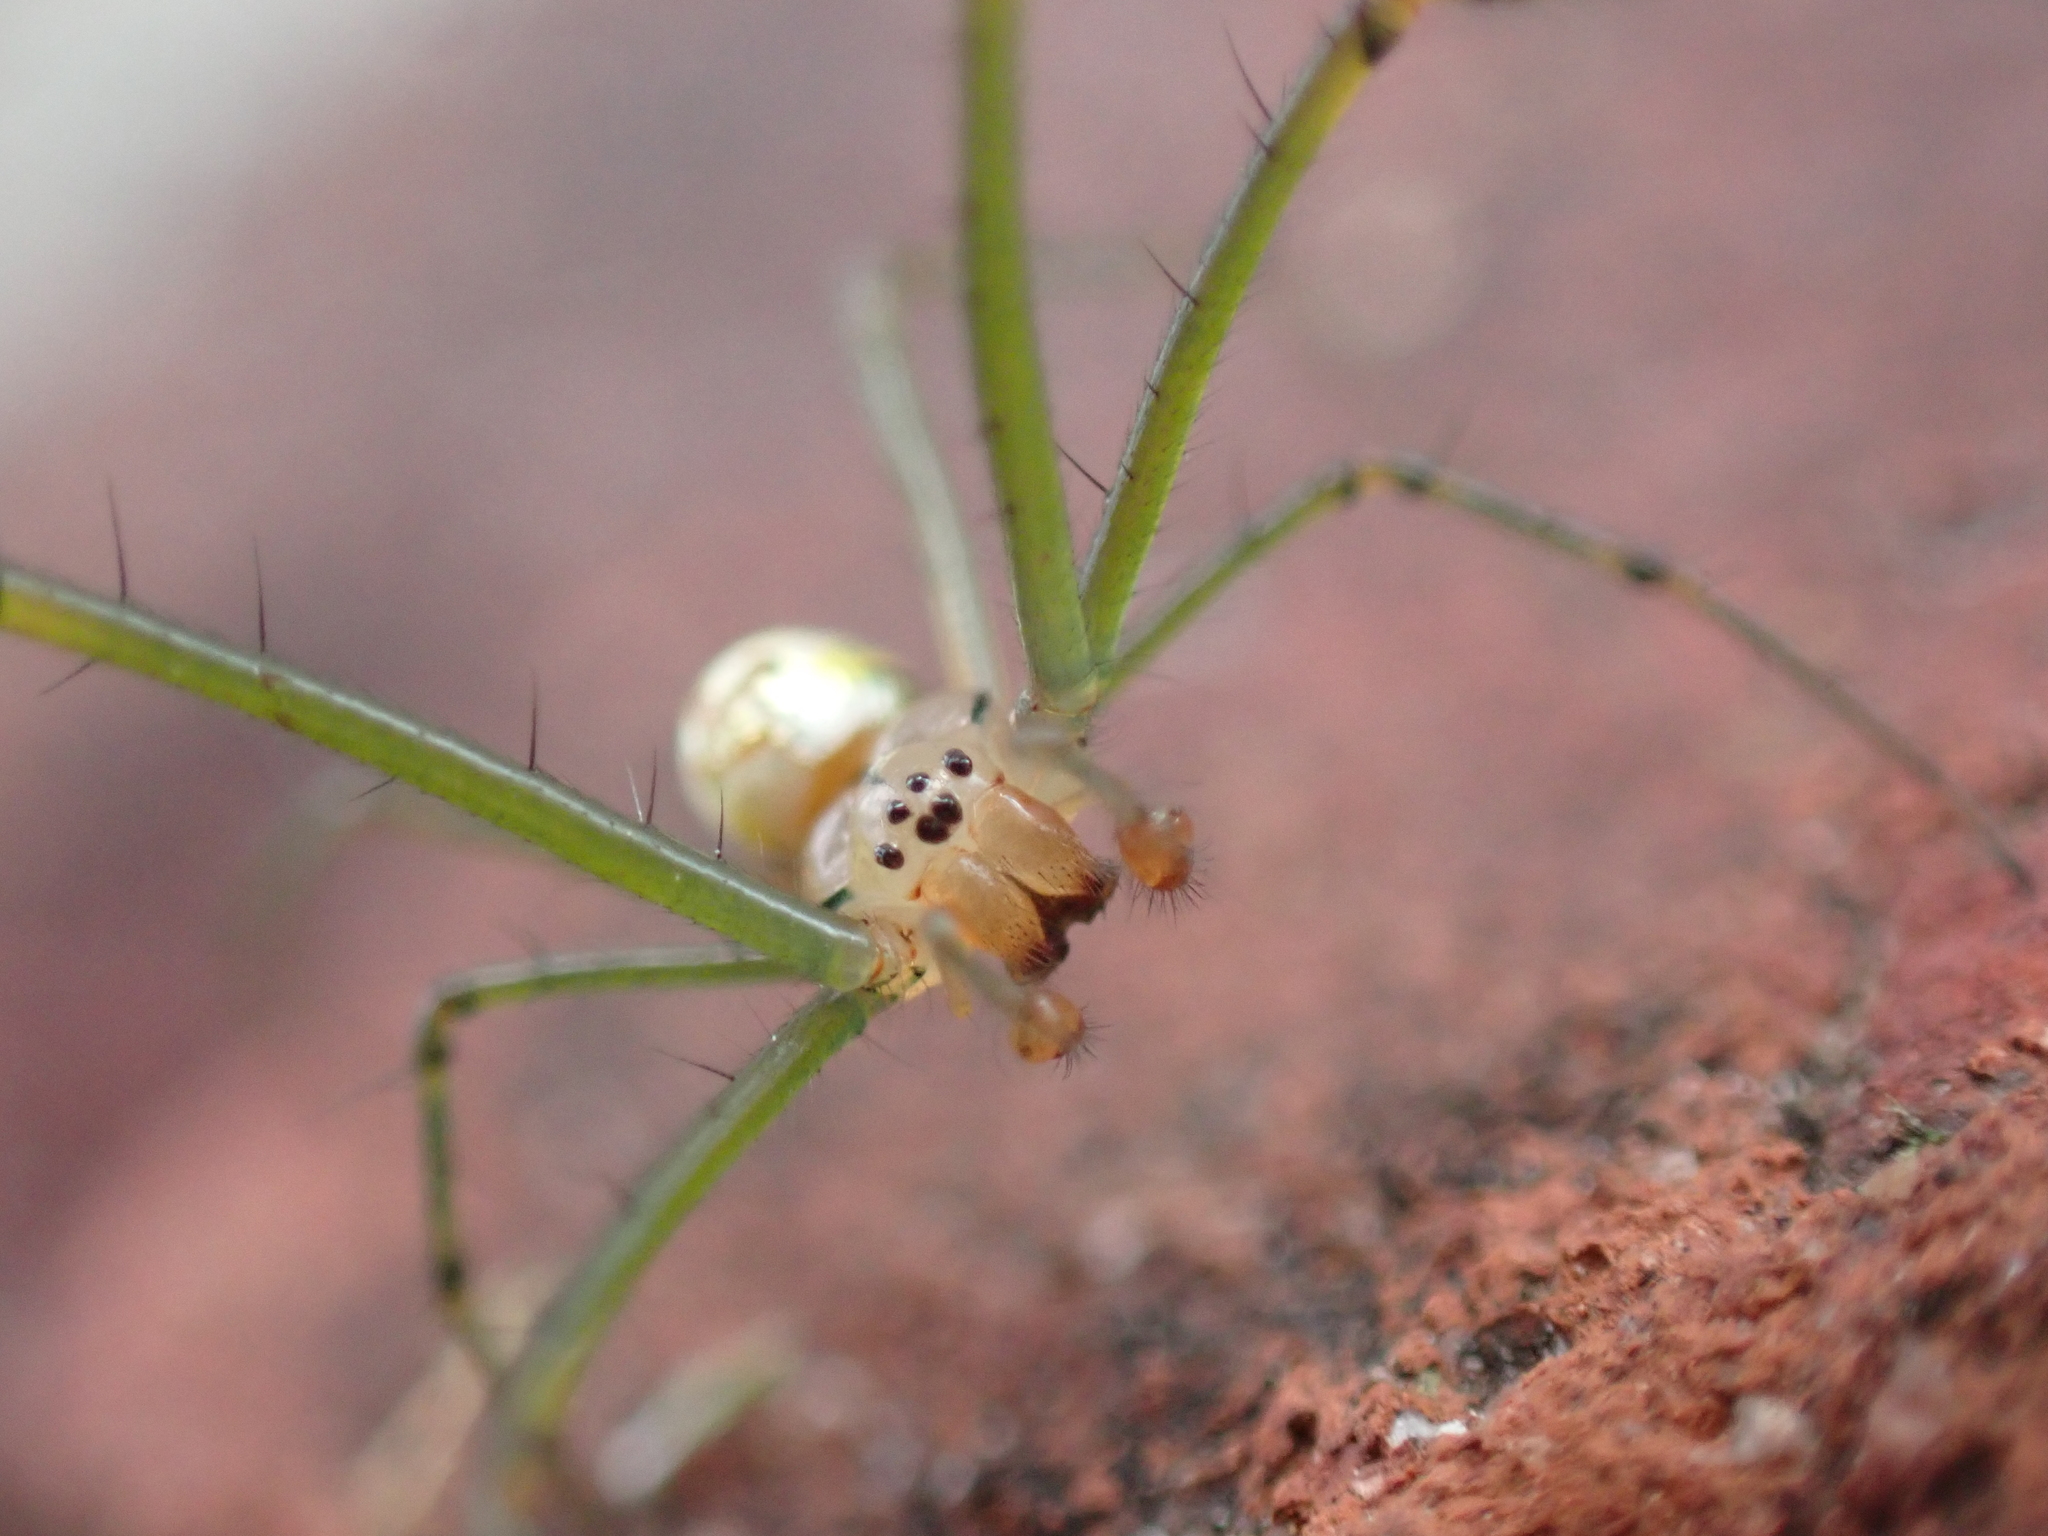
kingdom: Animalia
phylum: Arthropoda
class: Arachnida
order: Araneae
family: Tetragnathidae
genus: Leucauge
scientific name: Leucauge venusta
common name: Longjawed orb weavers
